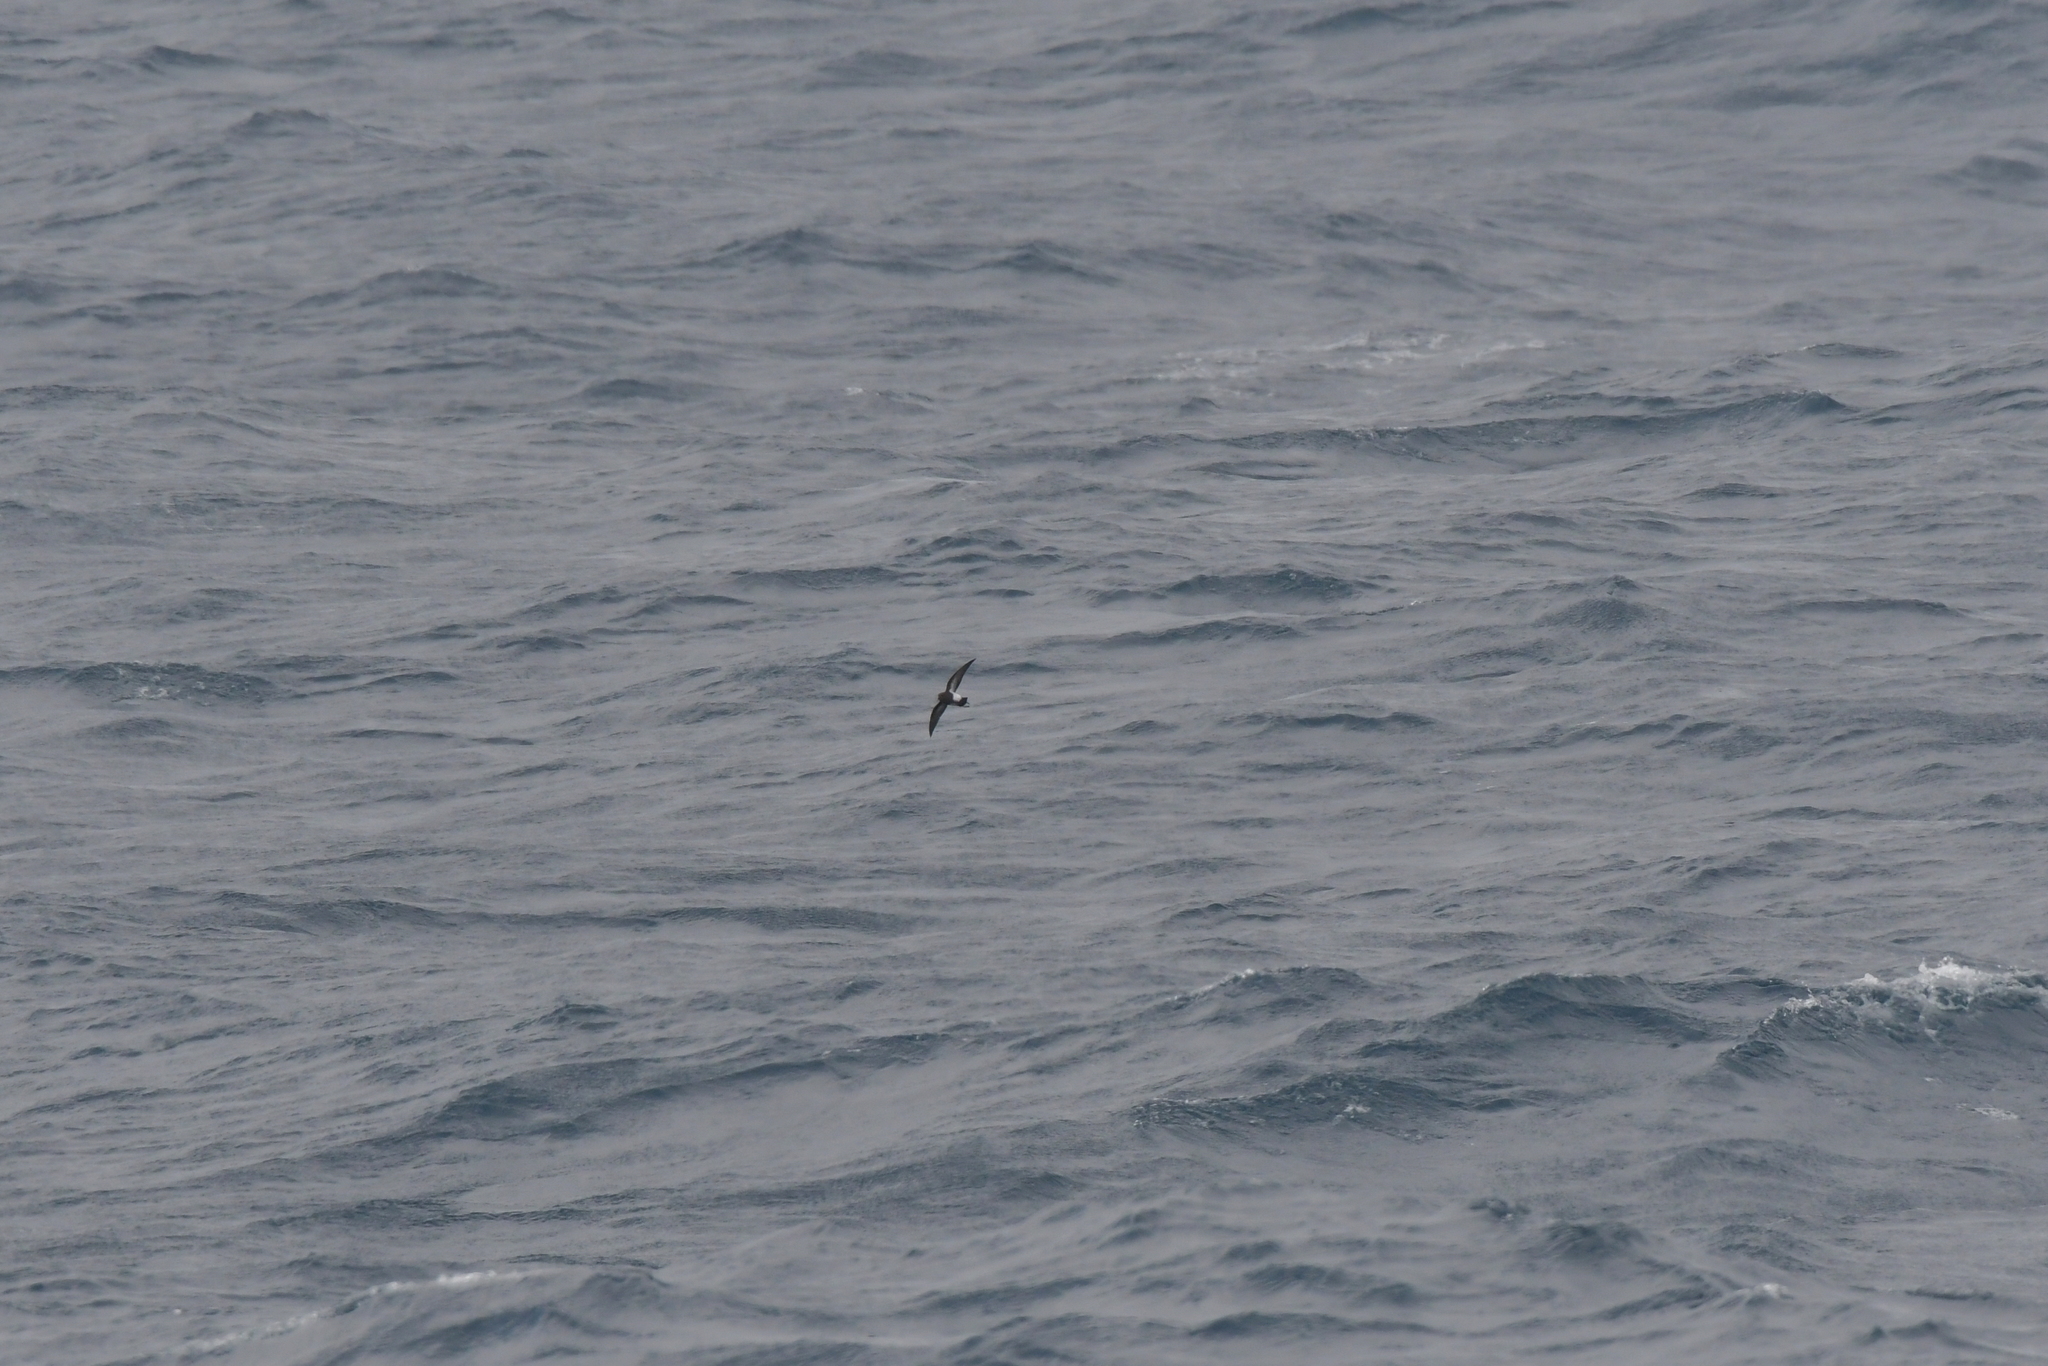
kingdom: Animalia
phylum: Chordata
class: Aves
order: Procellariiformes
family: Hydrobatidae
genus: Fregetta
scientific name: Fregetta tropica
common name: Black-bellied storm-petrel
